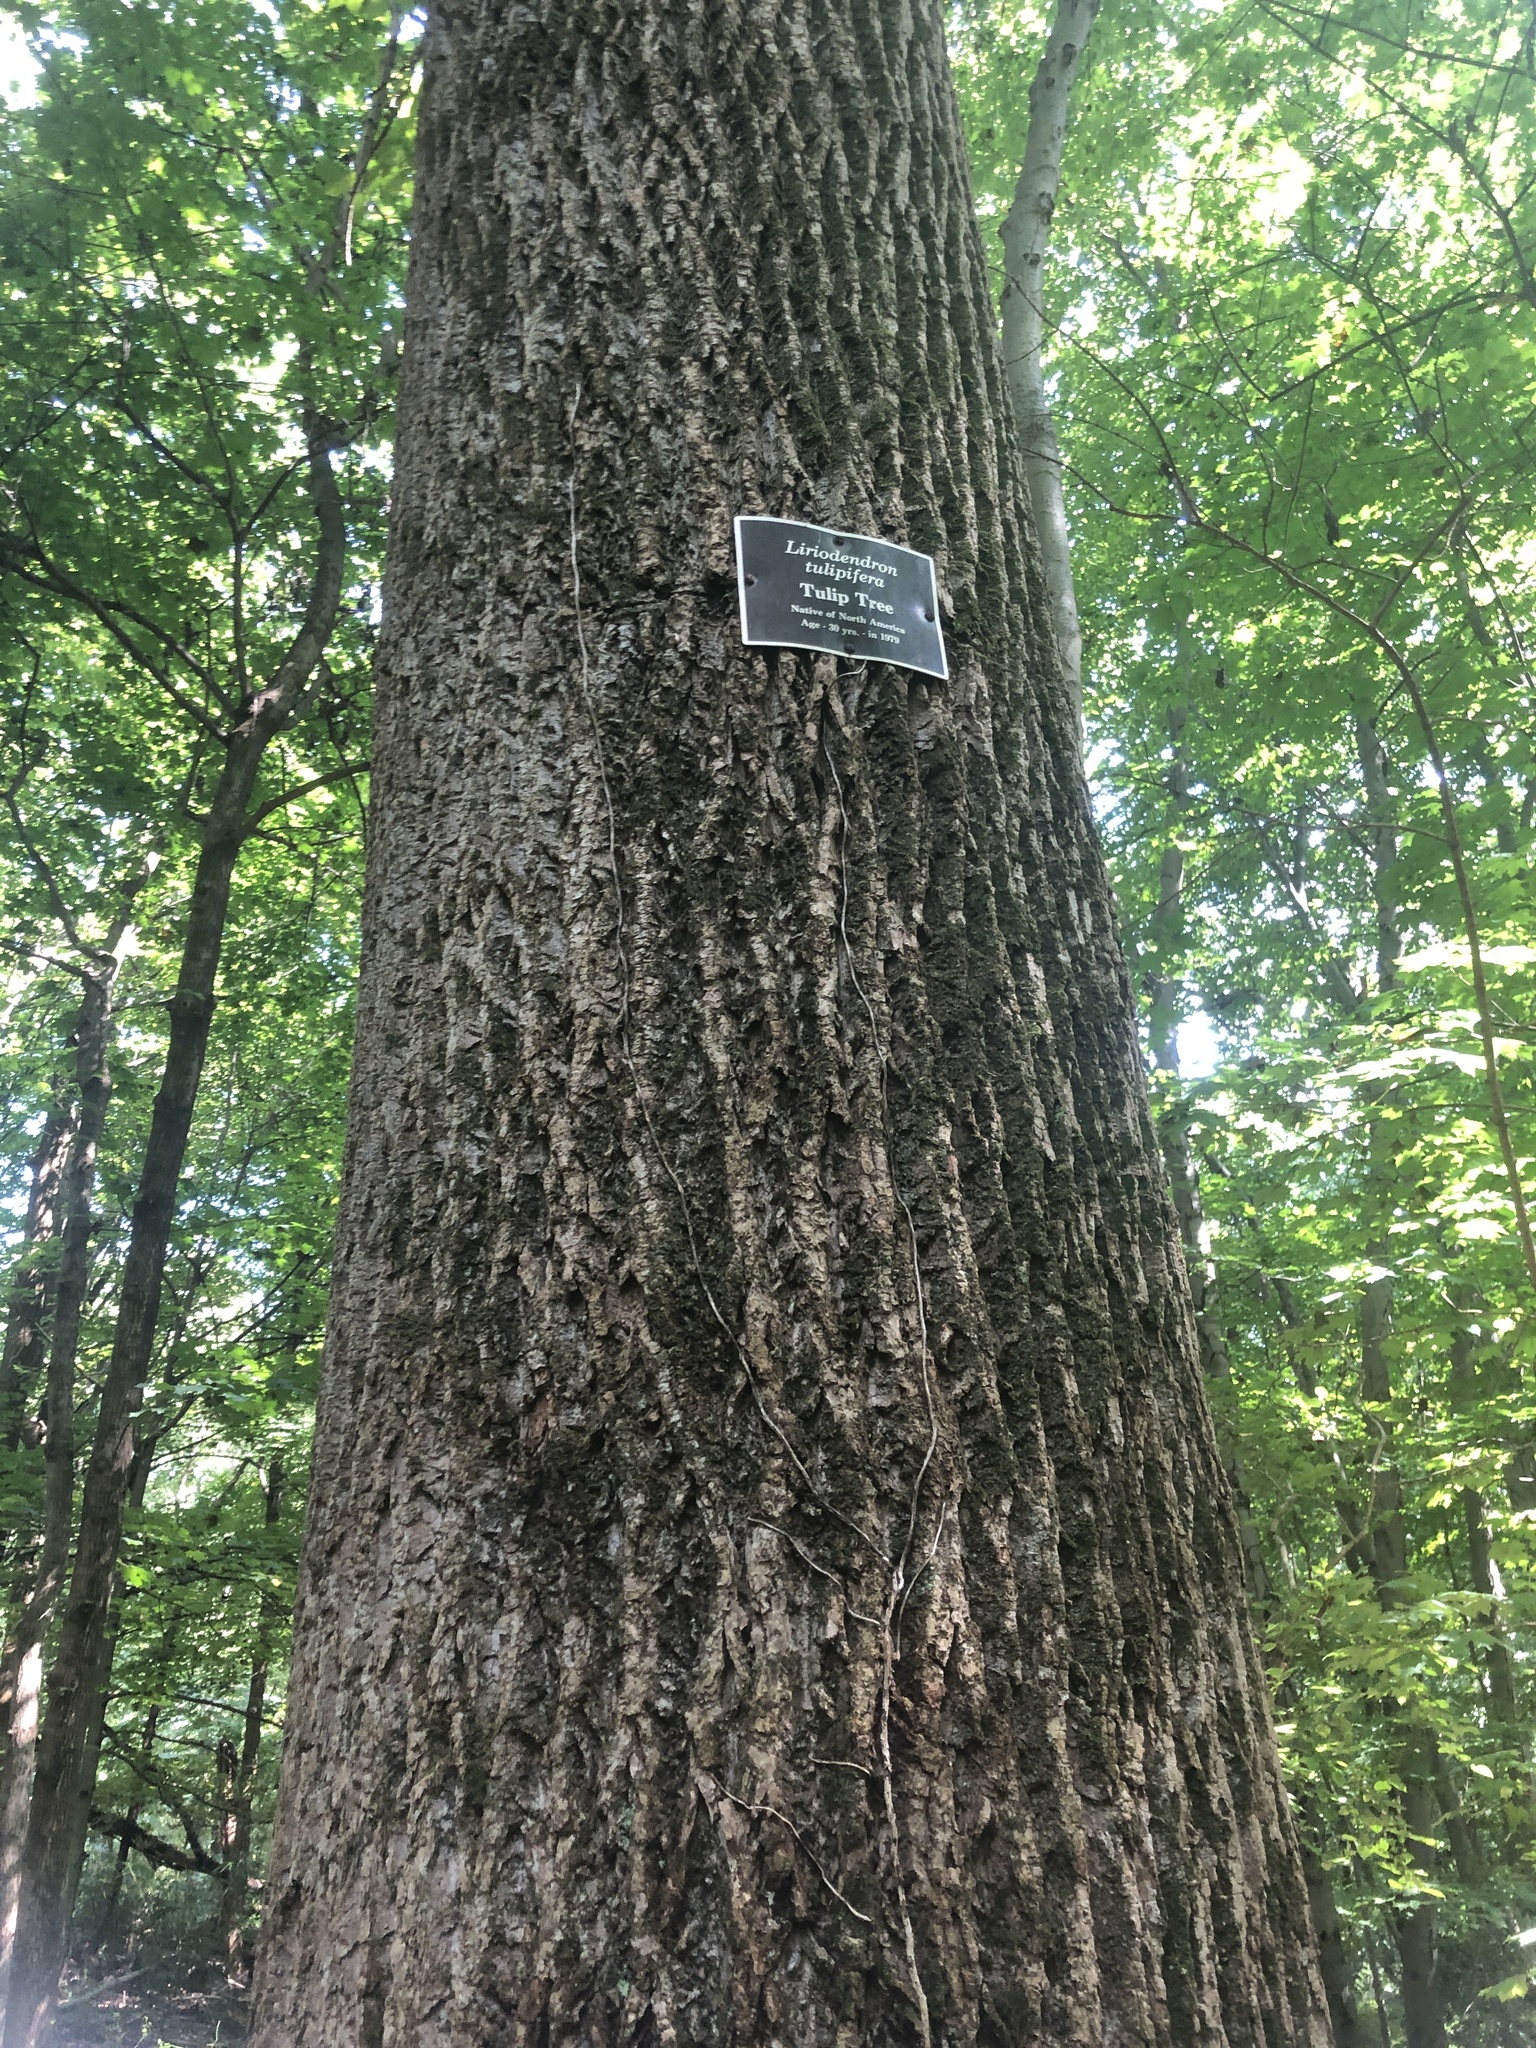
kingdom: Plantae
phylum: Tracheophyta
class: Magnoliopsida
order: Magnoliales
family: Magnoliaceae
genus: Liriodendron
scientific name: Liriodendron tulipifera
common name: Tulip tree
